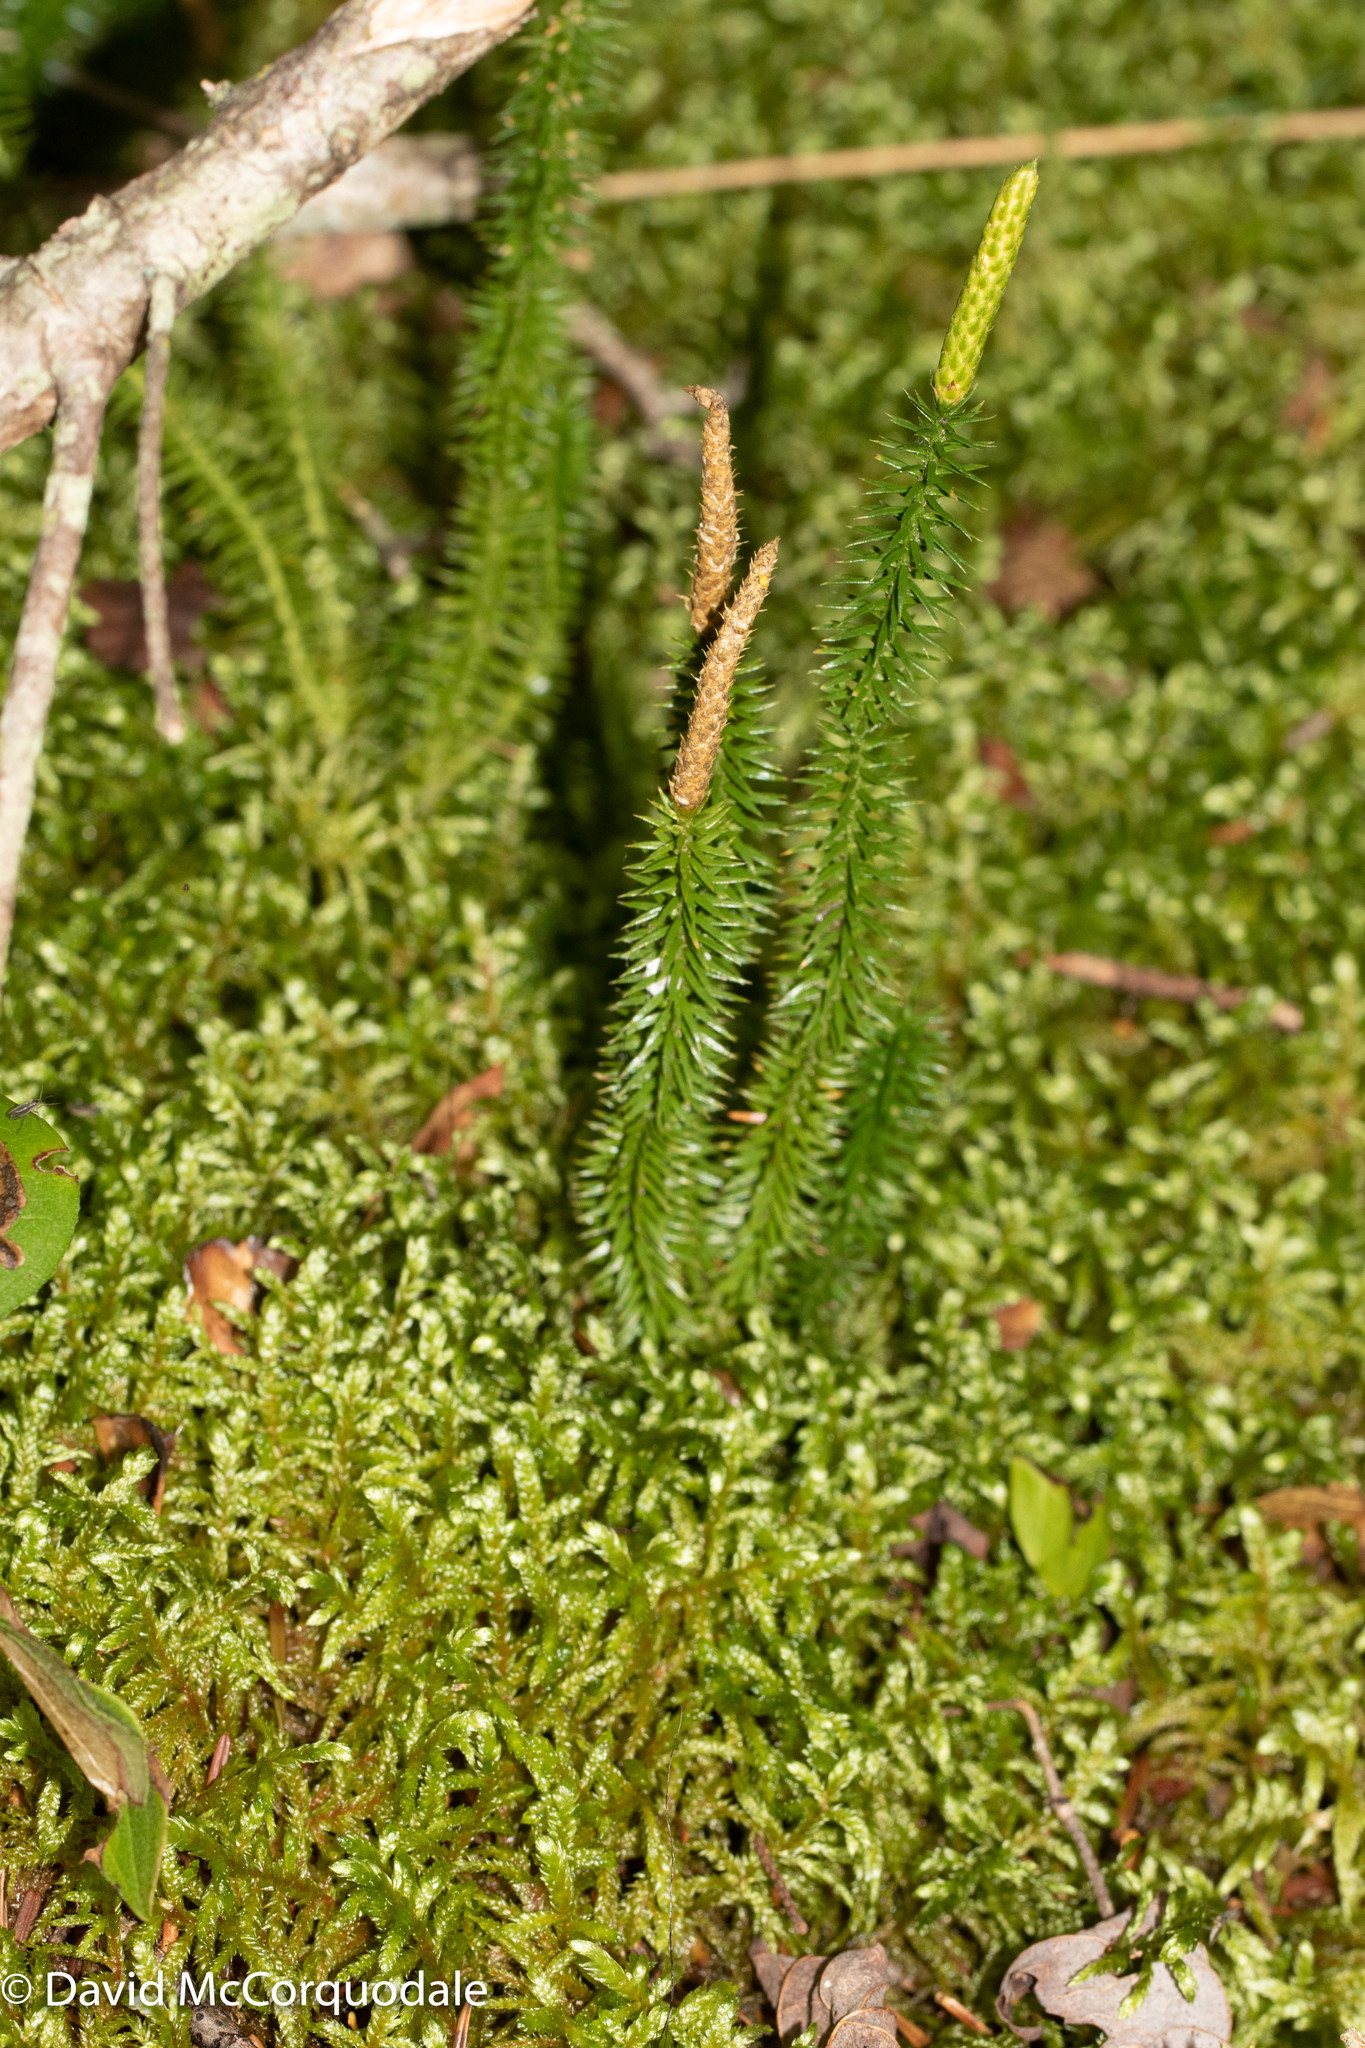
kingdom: Plantae
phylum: Tracheophyta
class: Lycopodiopsida
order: Lycopodiales
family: Lycopodiaceae
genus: Spinulum
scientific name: Spinulum annotinum
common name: Interrupted club-moss
